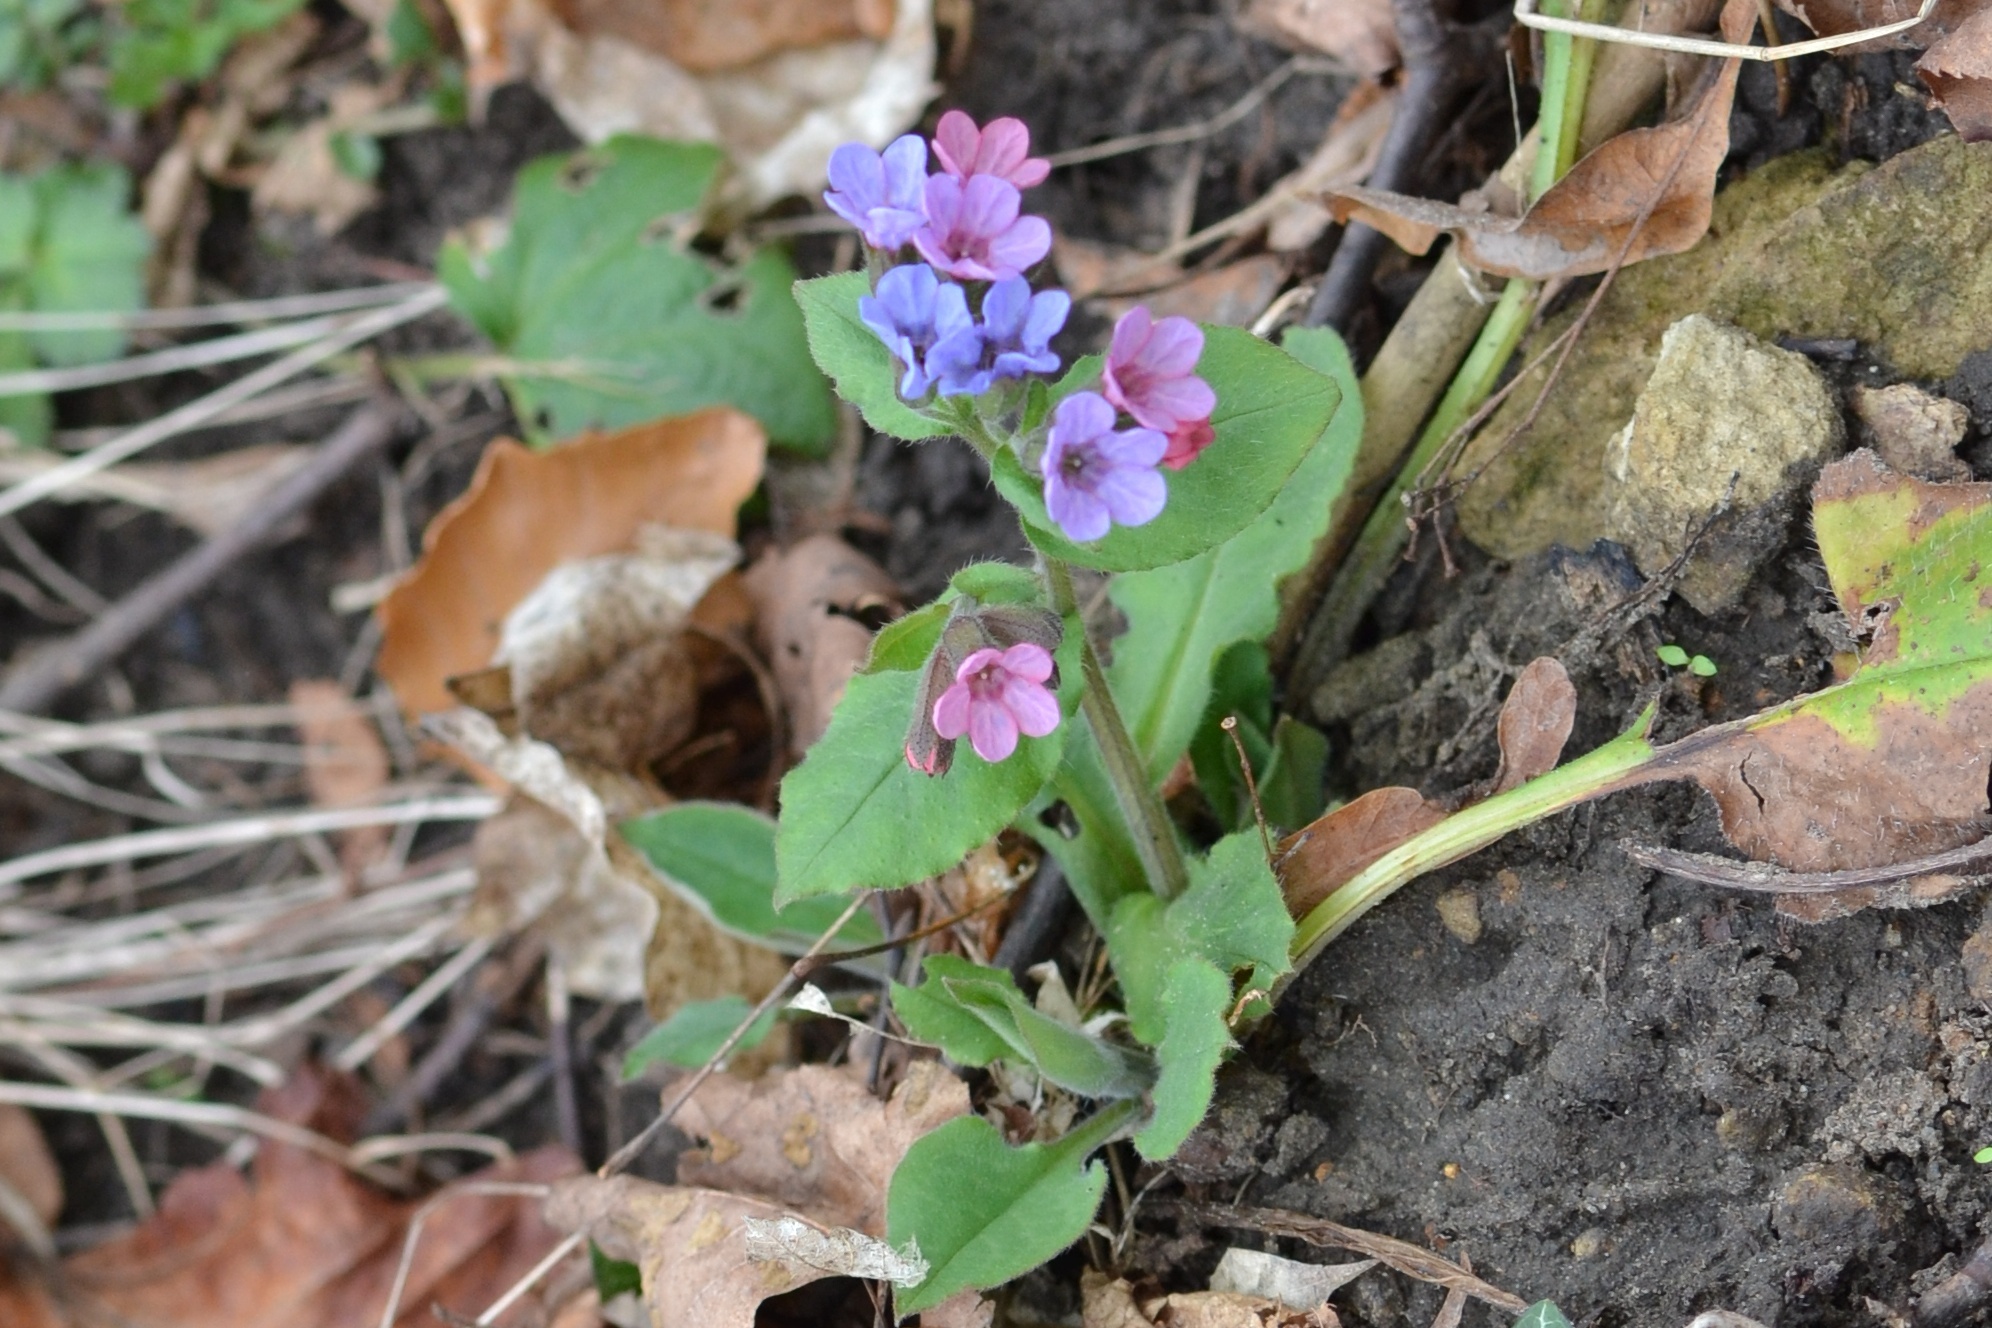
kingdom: Plantae
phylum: Tracheophyta
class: Magnoliopsida
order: Boraginales
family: Boraginaceae
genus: Pulmonaria
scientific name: Pulmonaria obscura
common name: Suffolk lungwort
